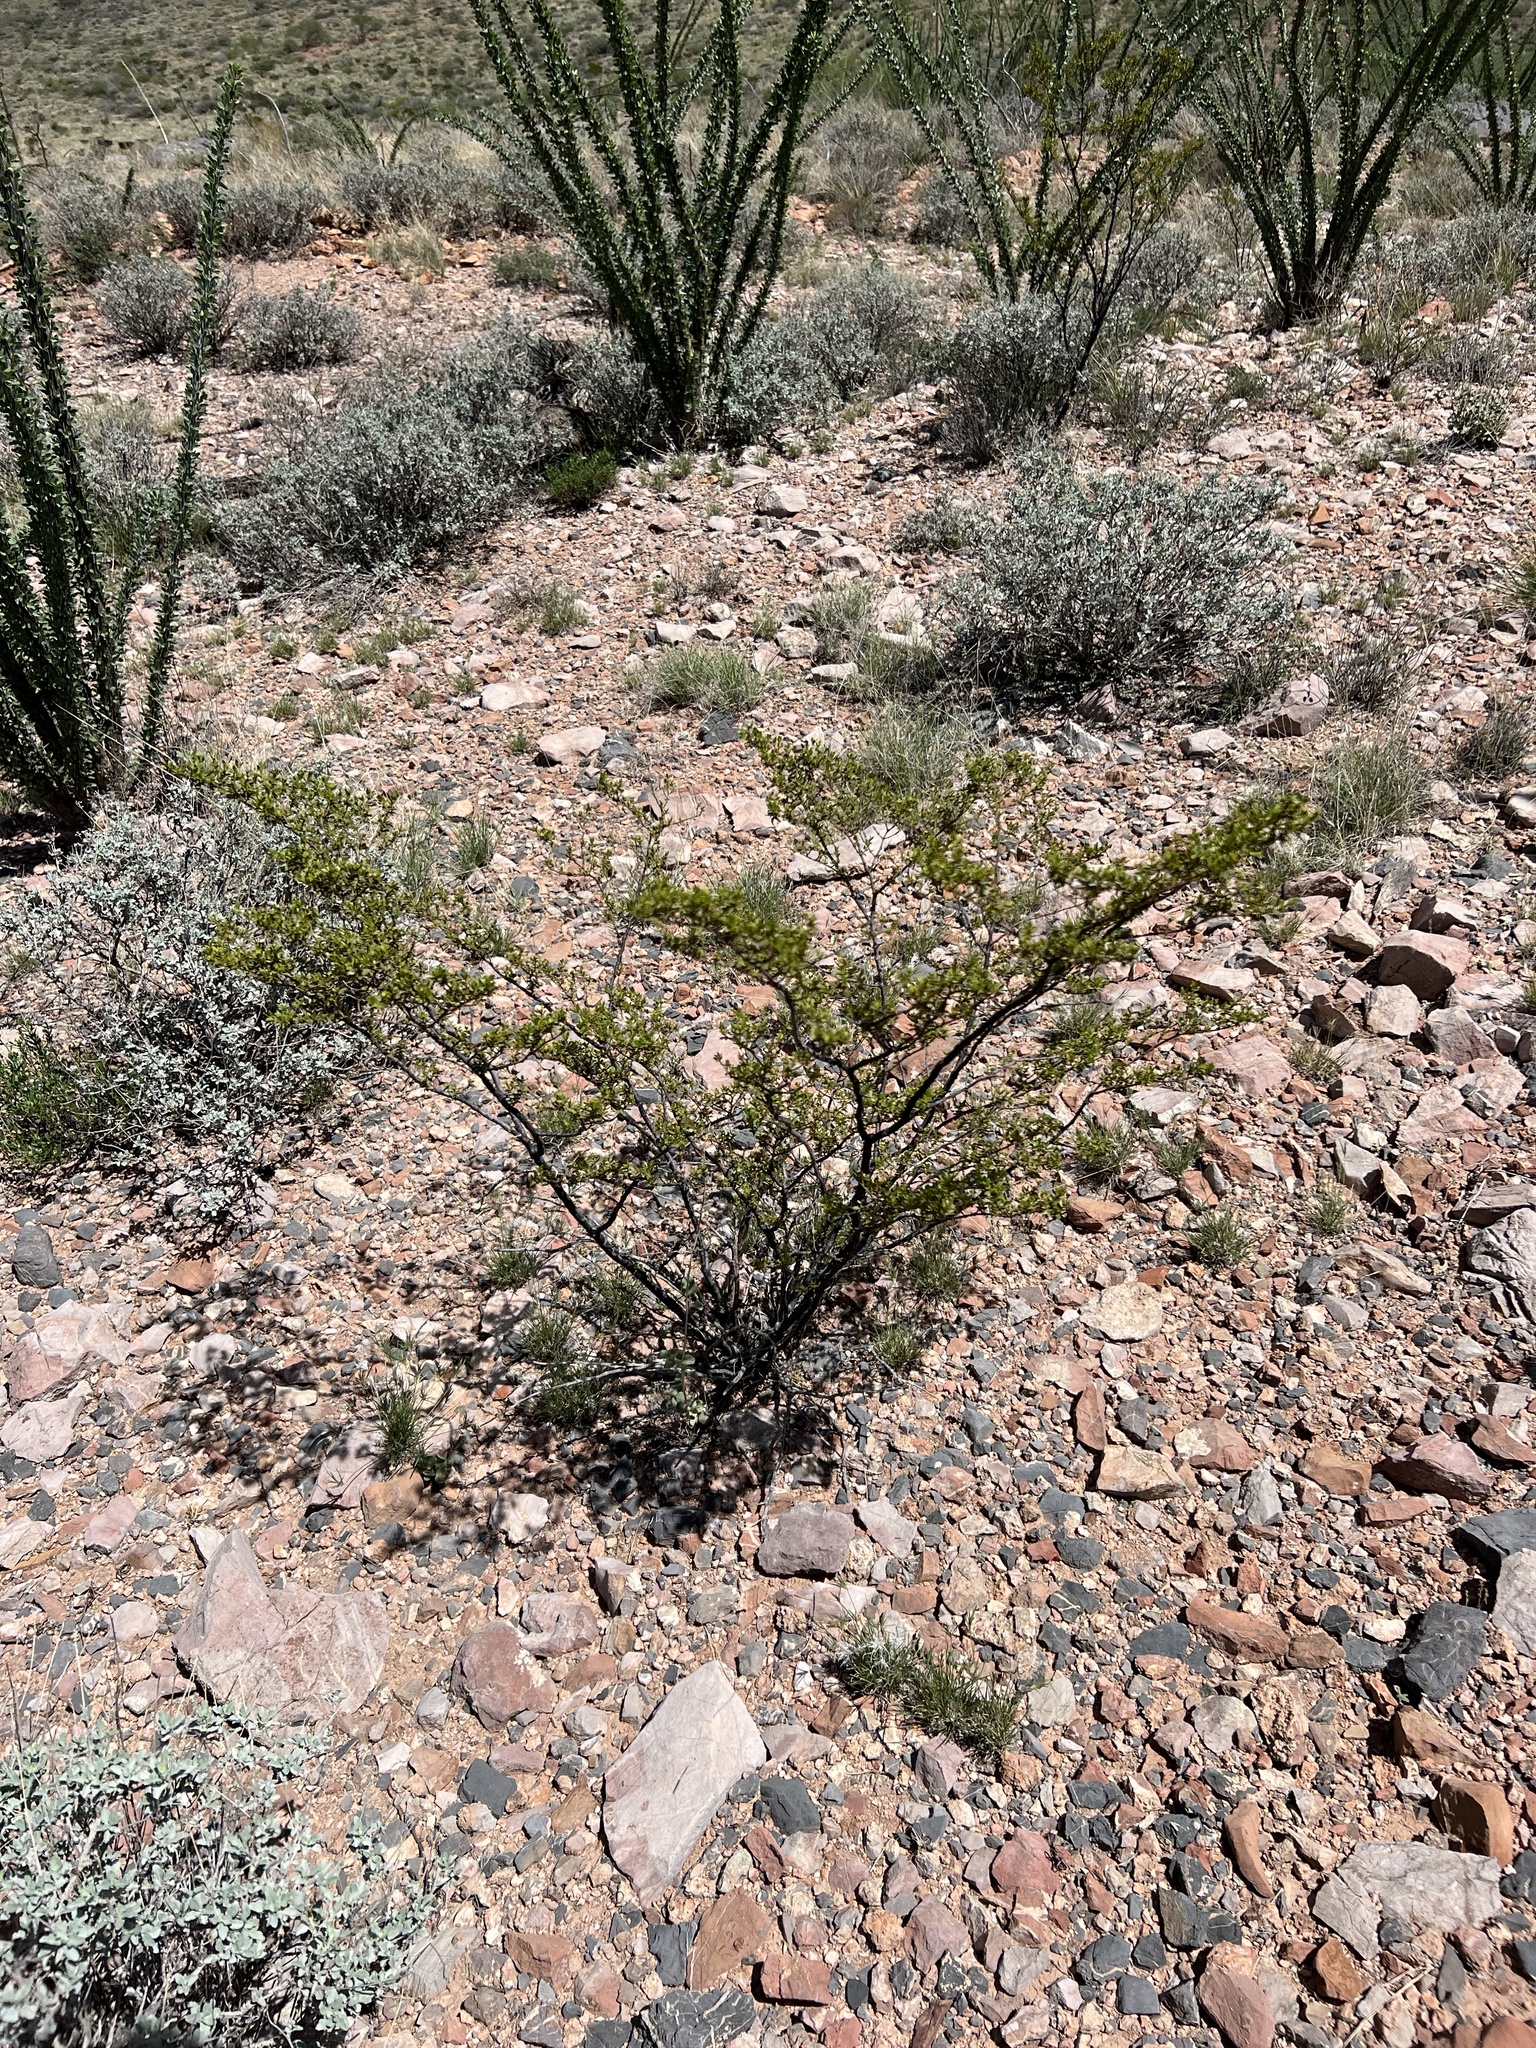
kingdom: Plantae
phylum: Tracheophyta
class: Magnoliopsida
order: Zygophyllales
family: Zygophyllaceae
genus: Larrea
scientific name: Larrea tridentata
